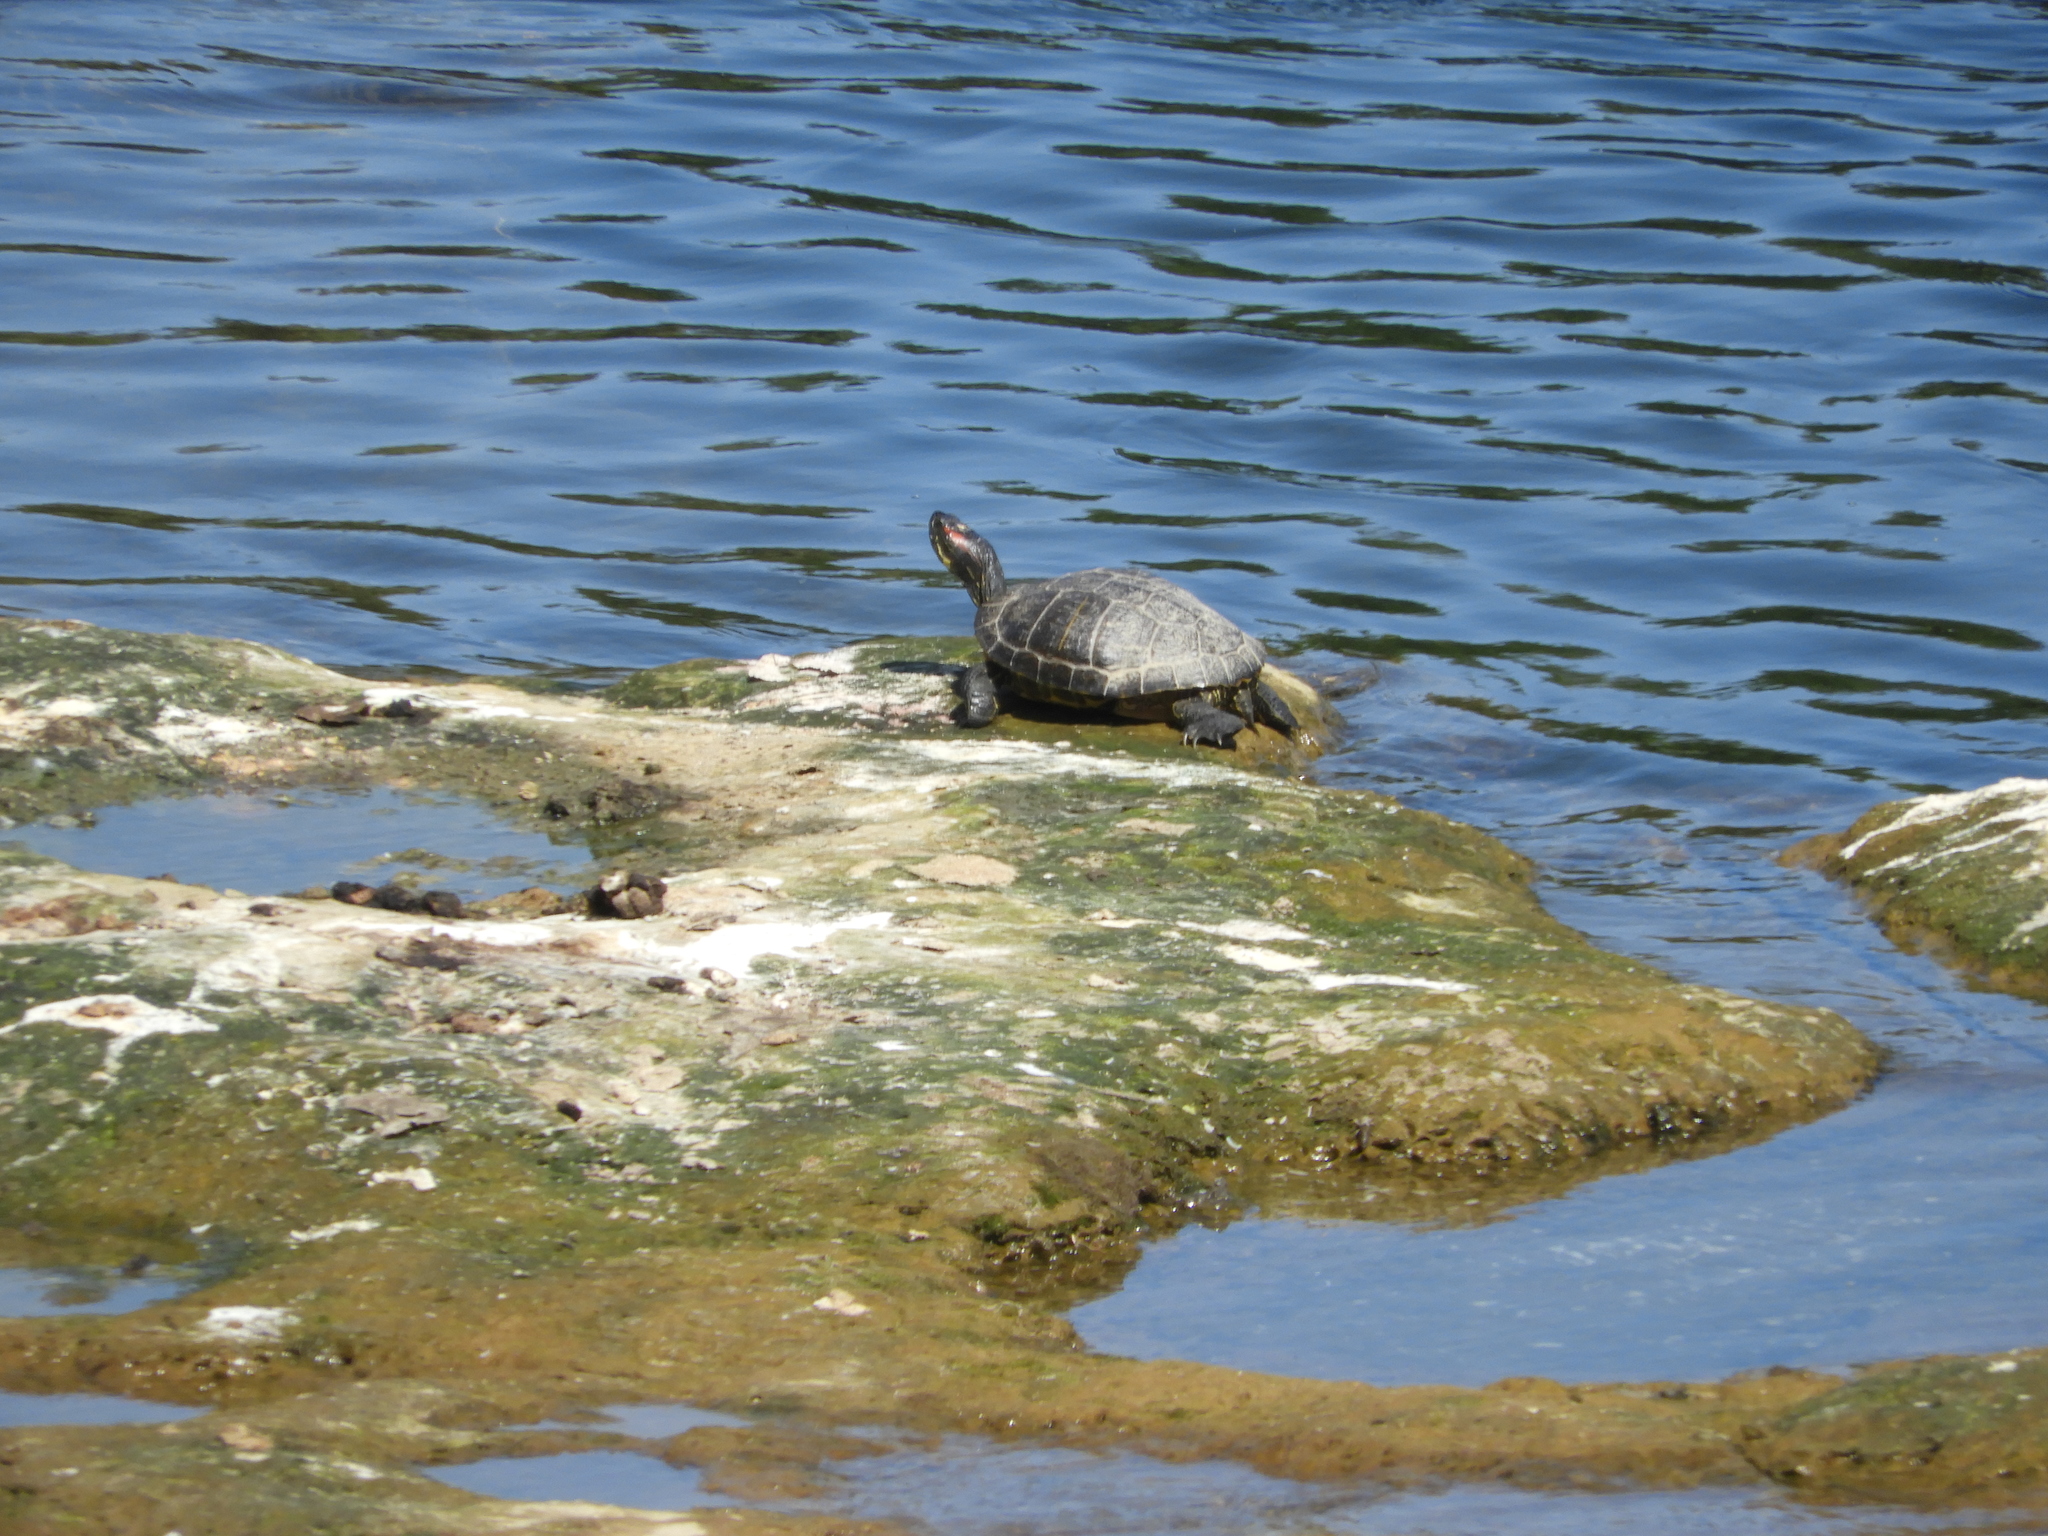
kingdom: Animalia
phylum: Chordata
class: Testudines
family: Emydidae
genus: Trachemys
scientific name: Trachemys scripta
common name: Slider
